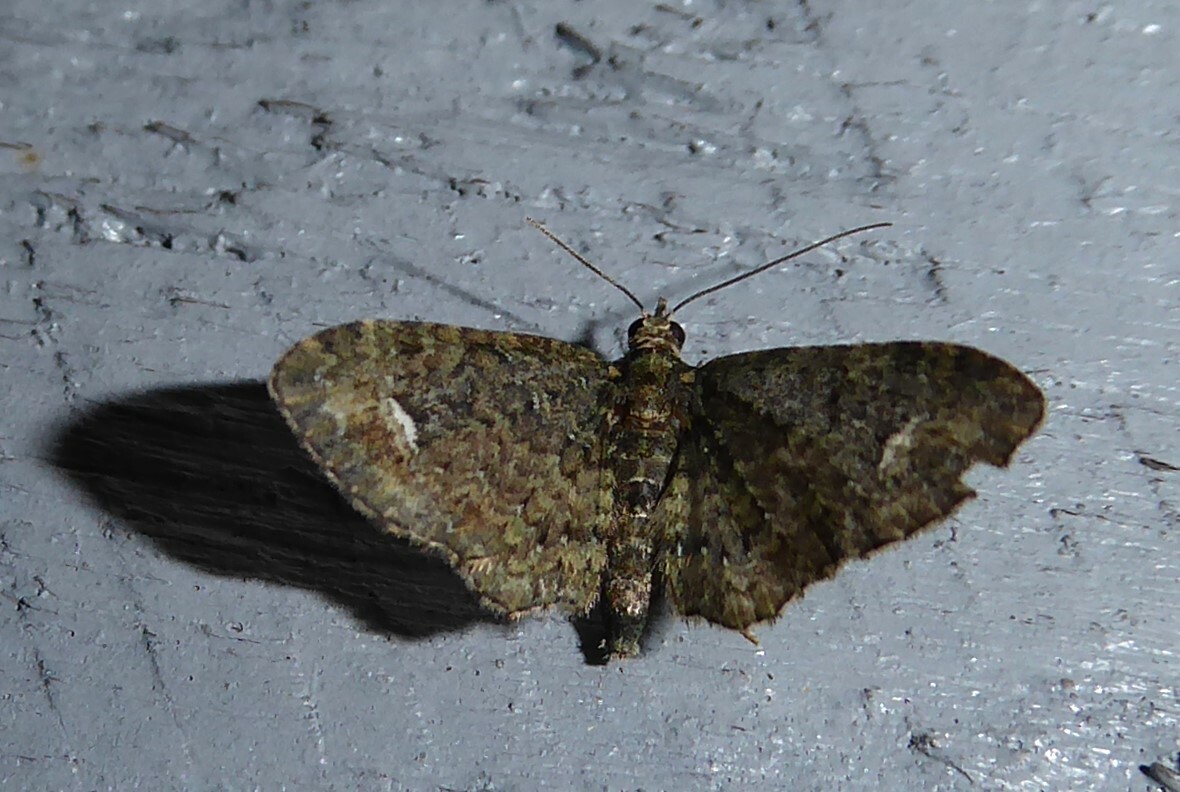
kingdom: Animalia
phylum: Arthropoda
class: Insecta
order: Lepidoptera
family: Geometridae
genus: Pasiphilodes
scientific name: Pasiphilodes testulata
